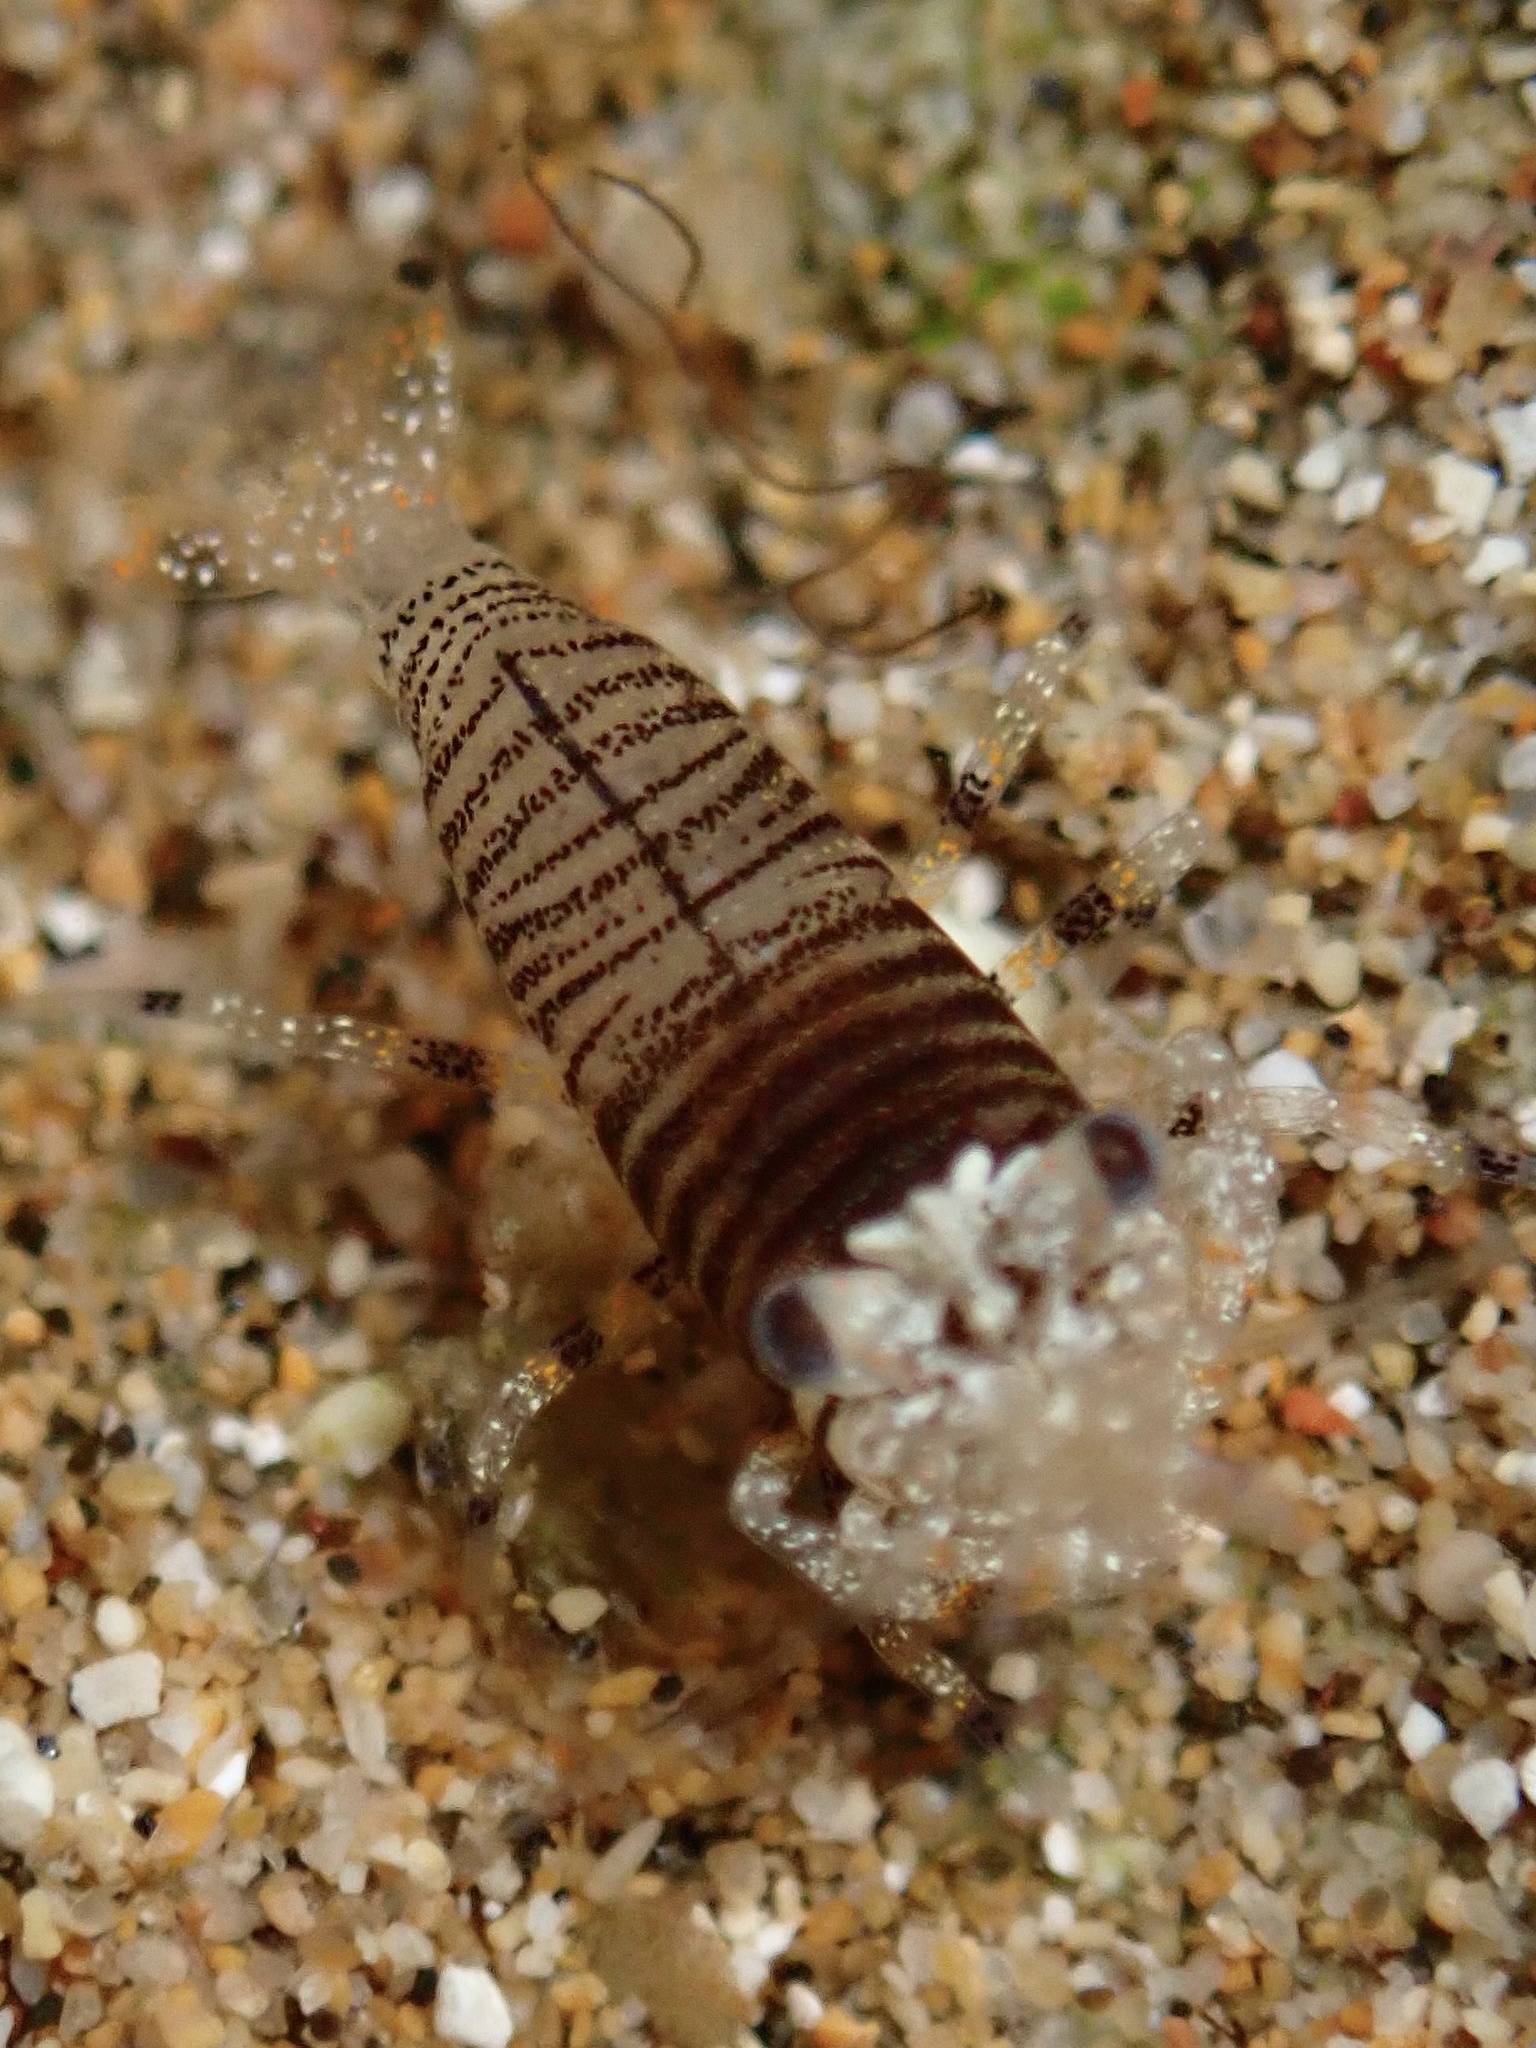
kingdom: Animalia
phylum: Arthropoda
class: Malacostraca
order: Decapoda
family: Palaemonidae
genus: Gnathophyllum
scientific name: Gnathophyllum americanum
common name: Bumblebee shrimp
